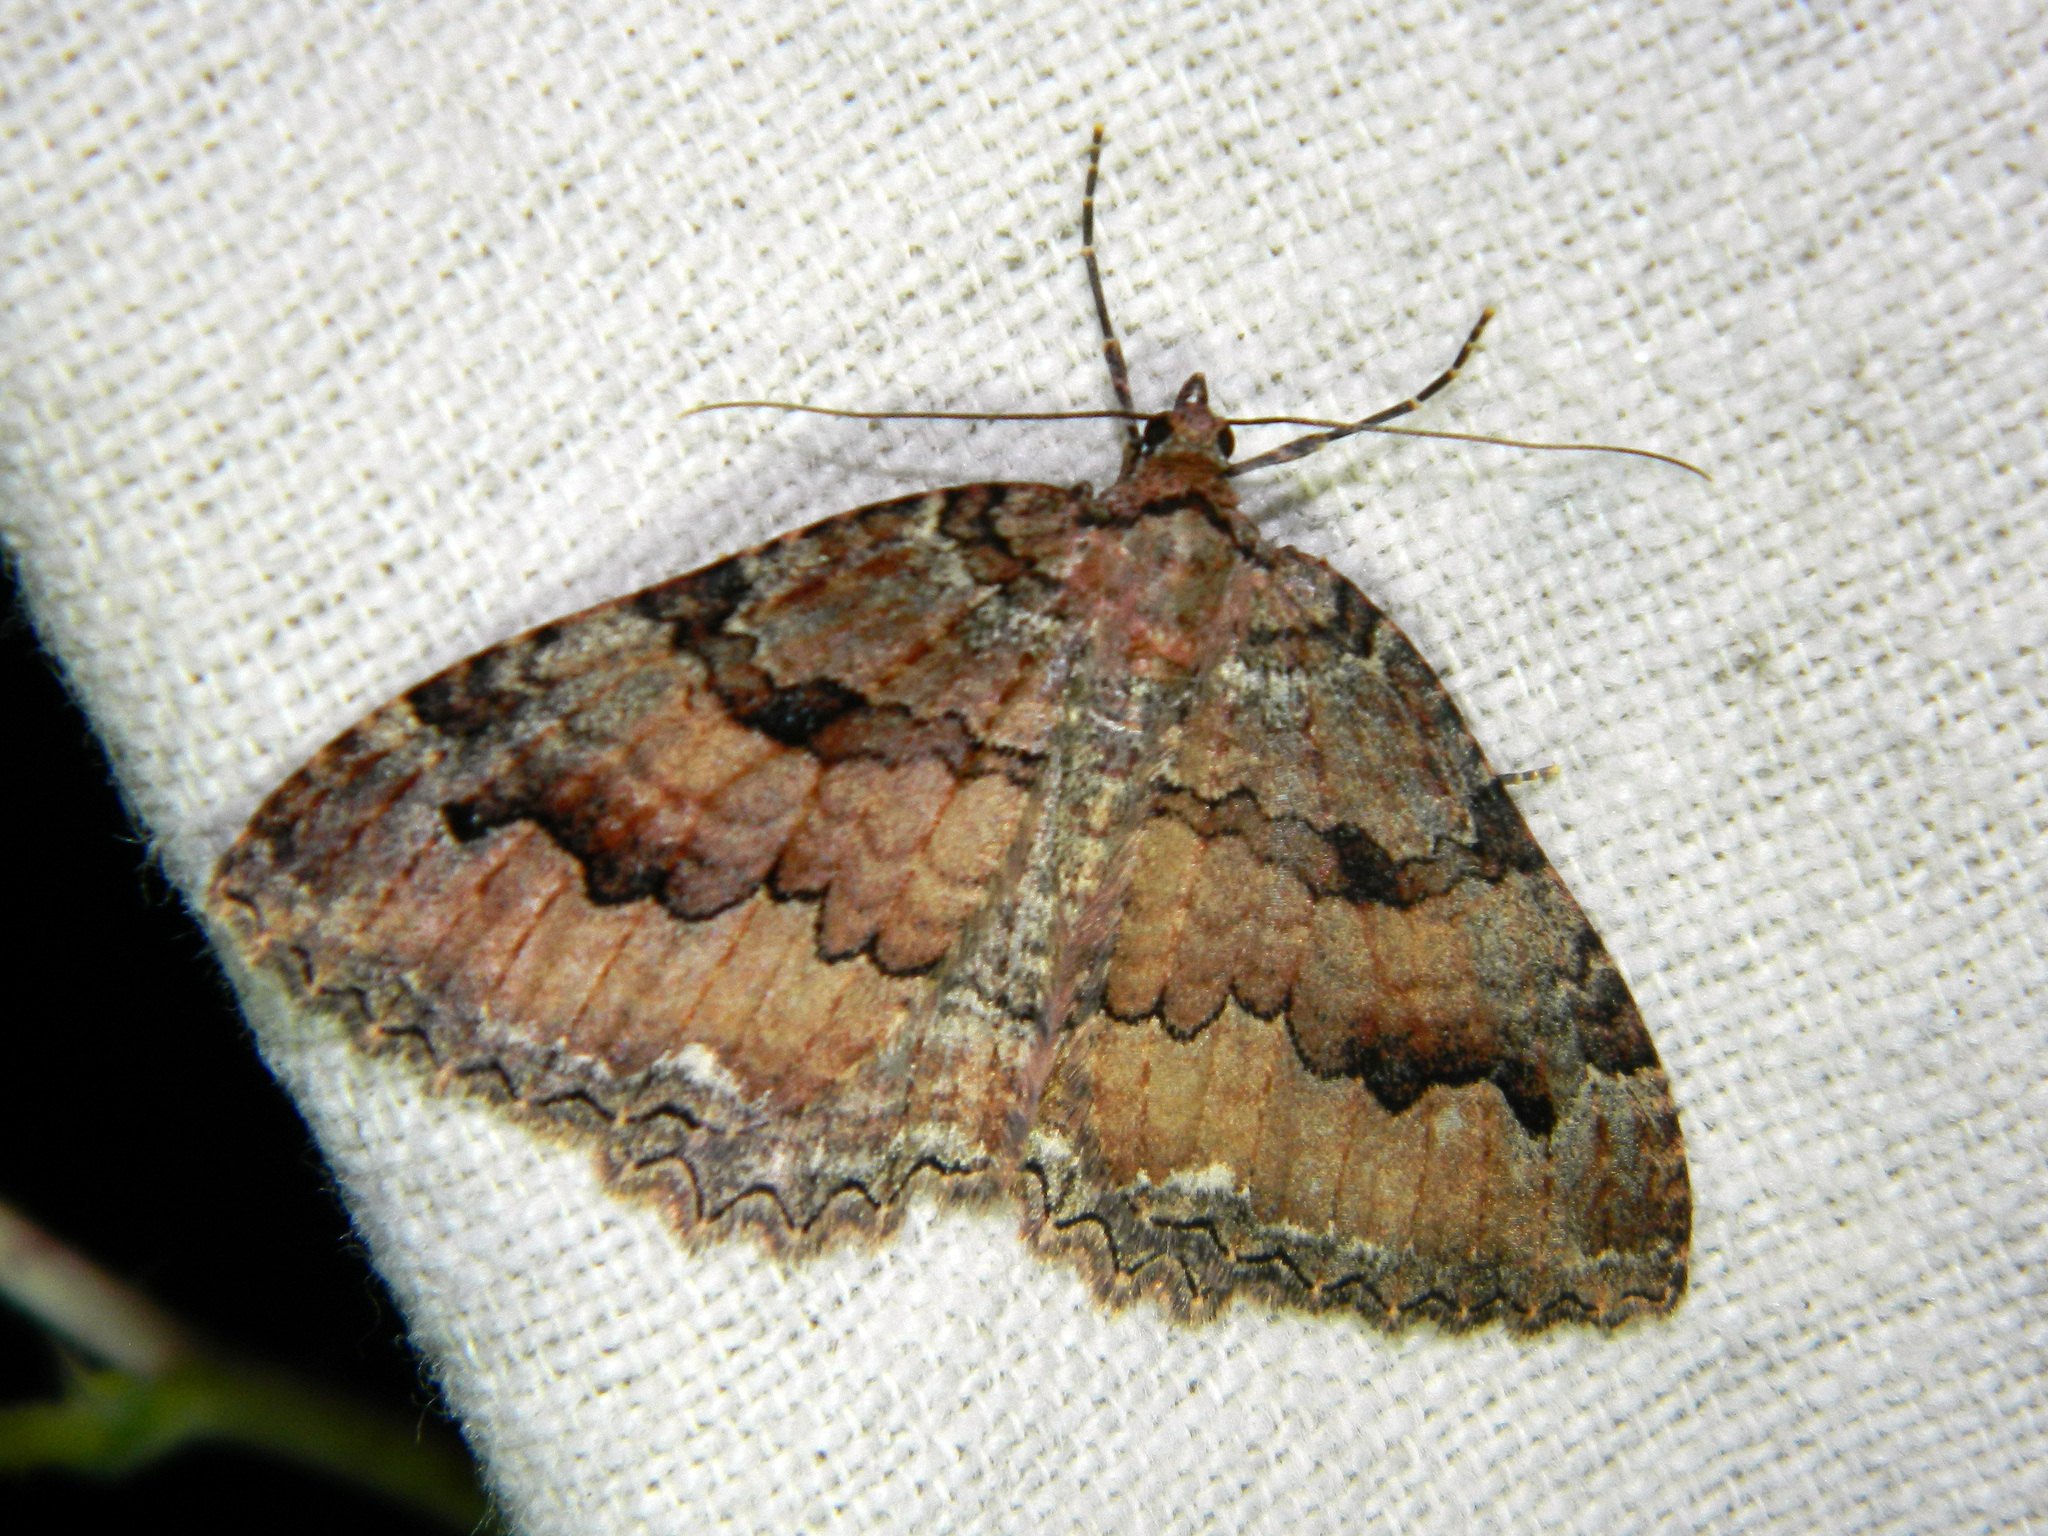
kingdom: Animalia
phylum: Arthropoda
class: Insecta
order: Lepidoptera
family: Geometridae
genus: Triphosa
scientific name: Triphosa haesitata
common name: Tissue moth
